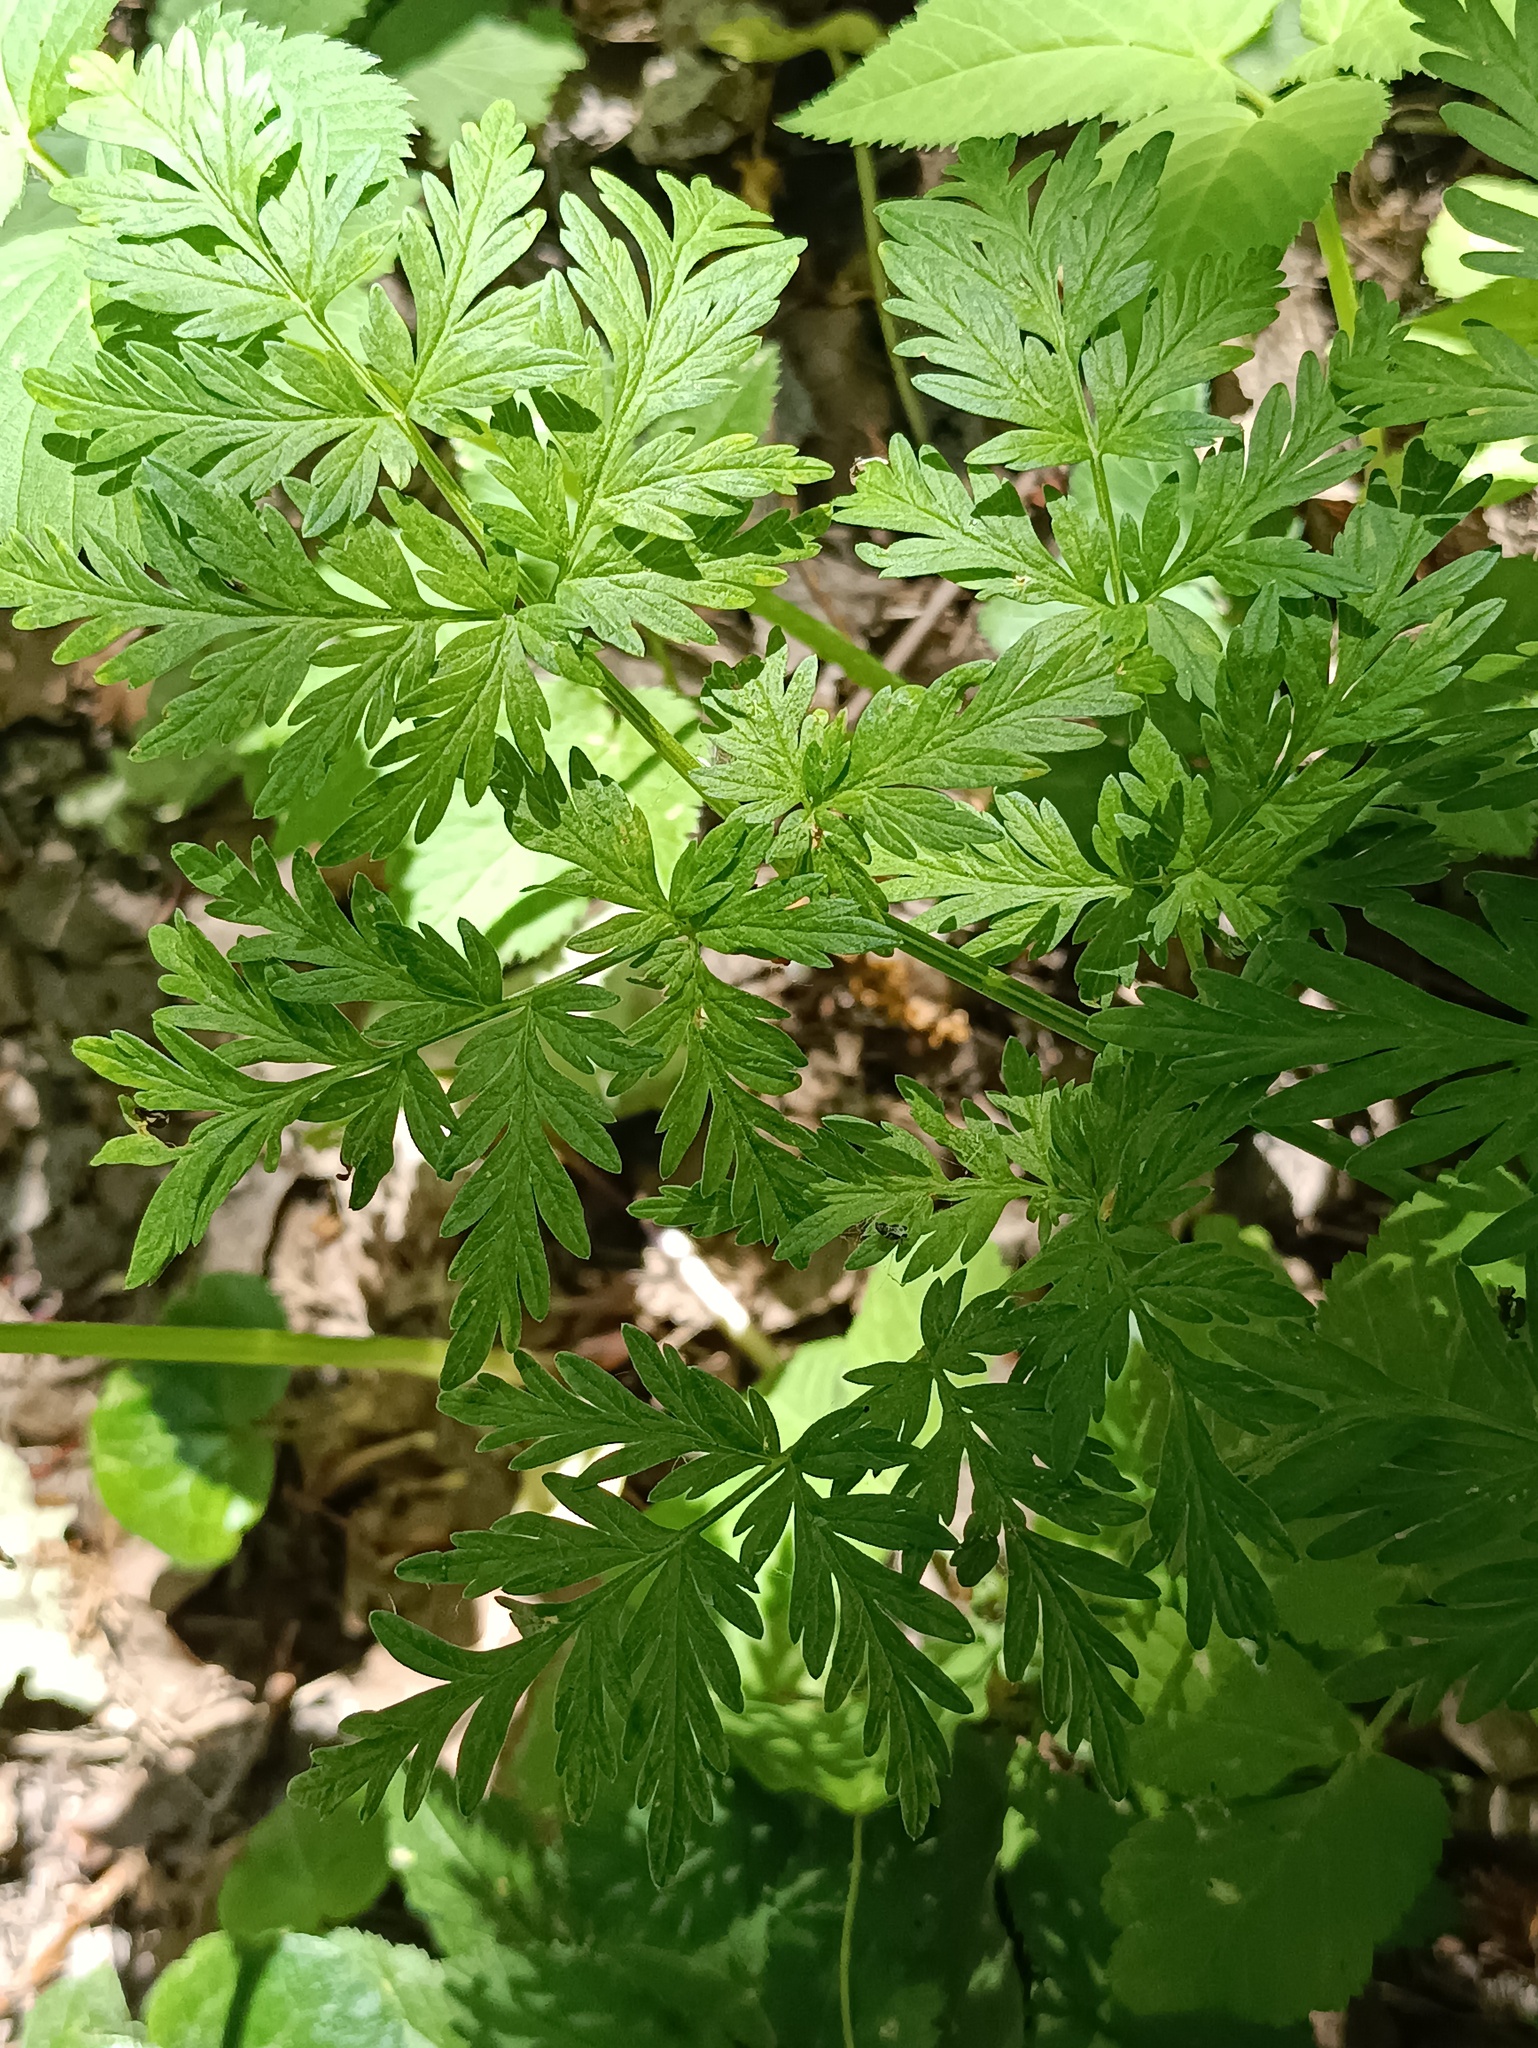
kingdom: Plantae
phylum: Tracheophyta
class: Magnoliopsida
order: Apiales
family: Apiaceae
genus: Anthriscus
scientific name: Anthriscus sylvestris
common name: Cow parsley
